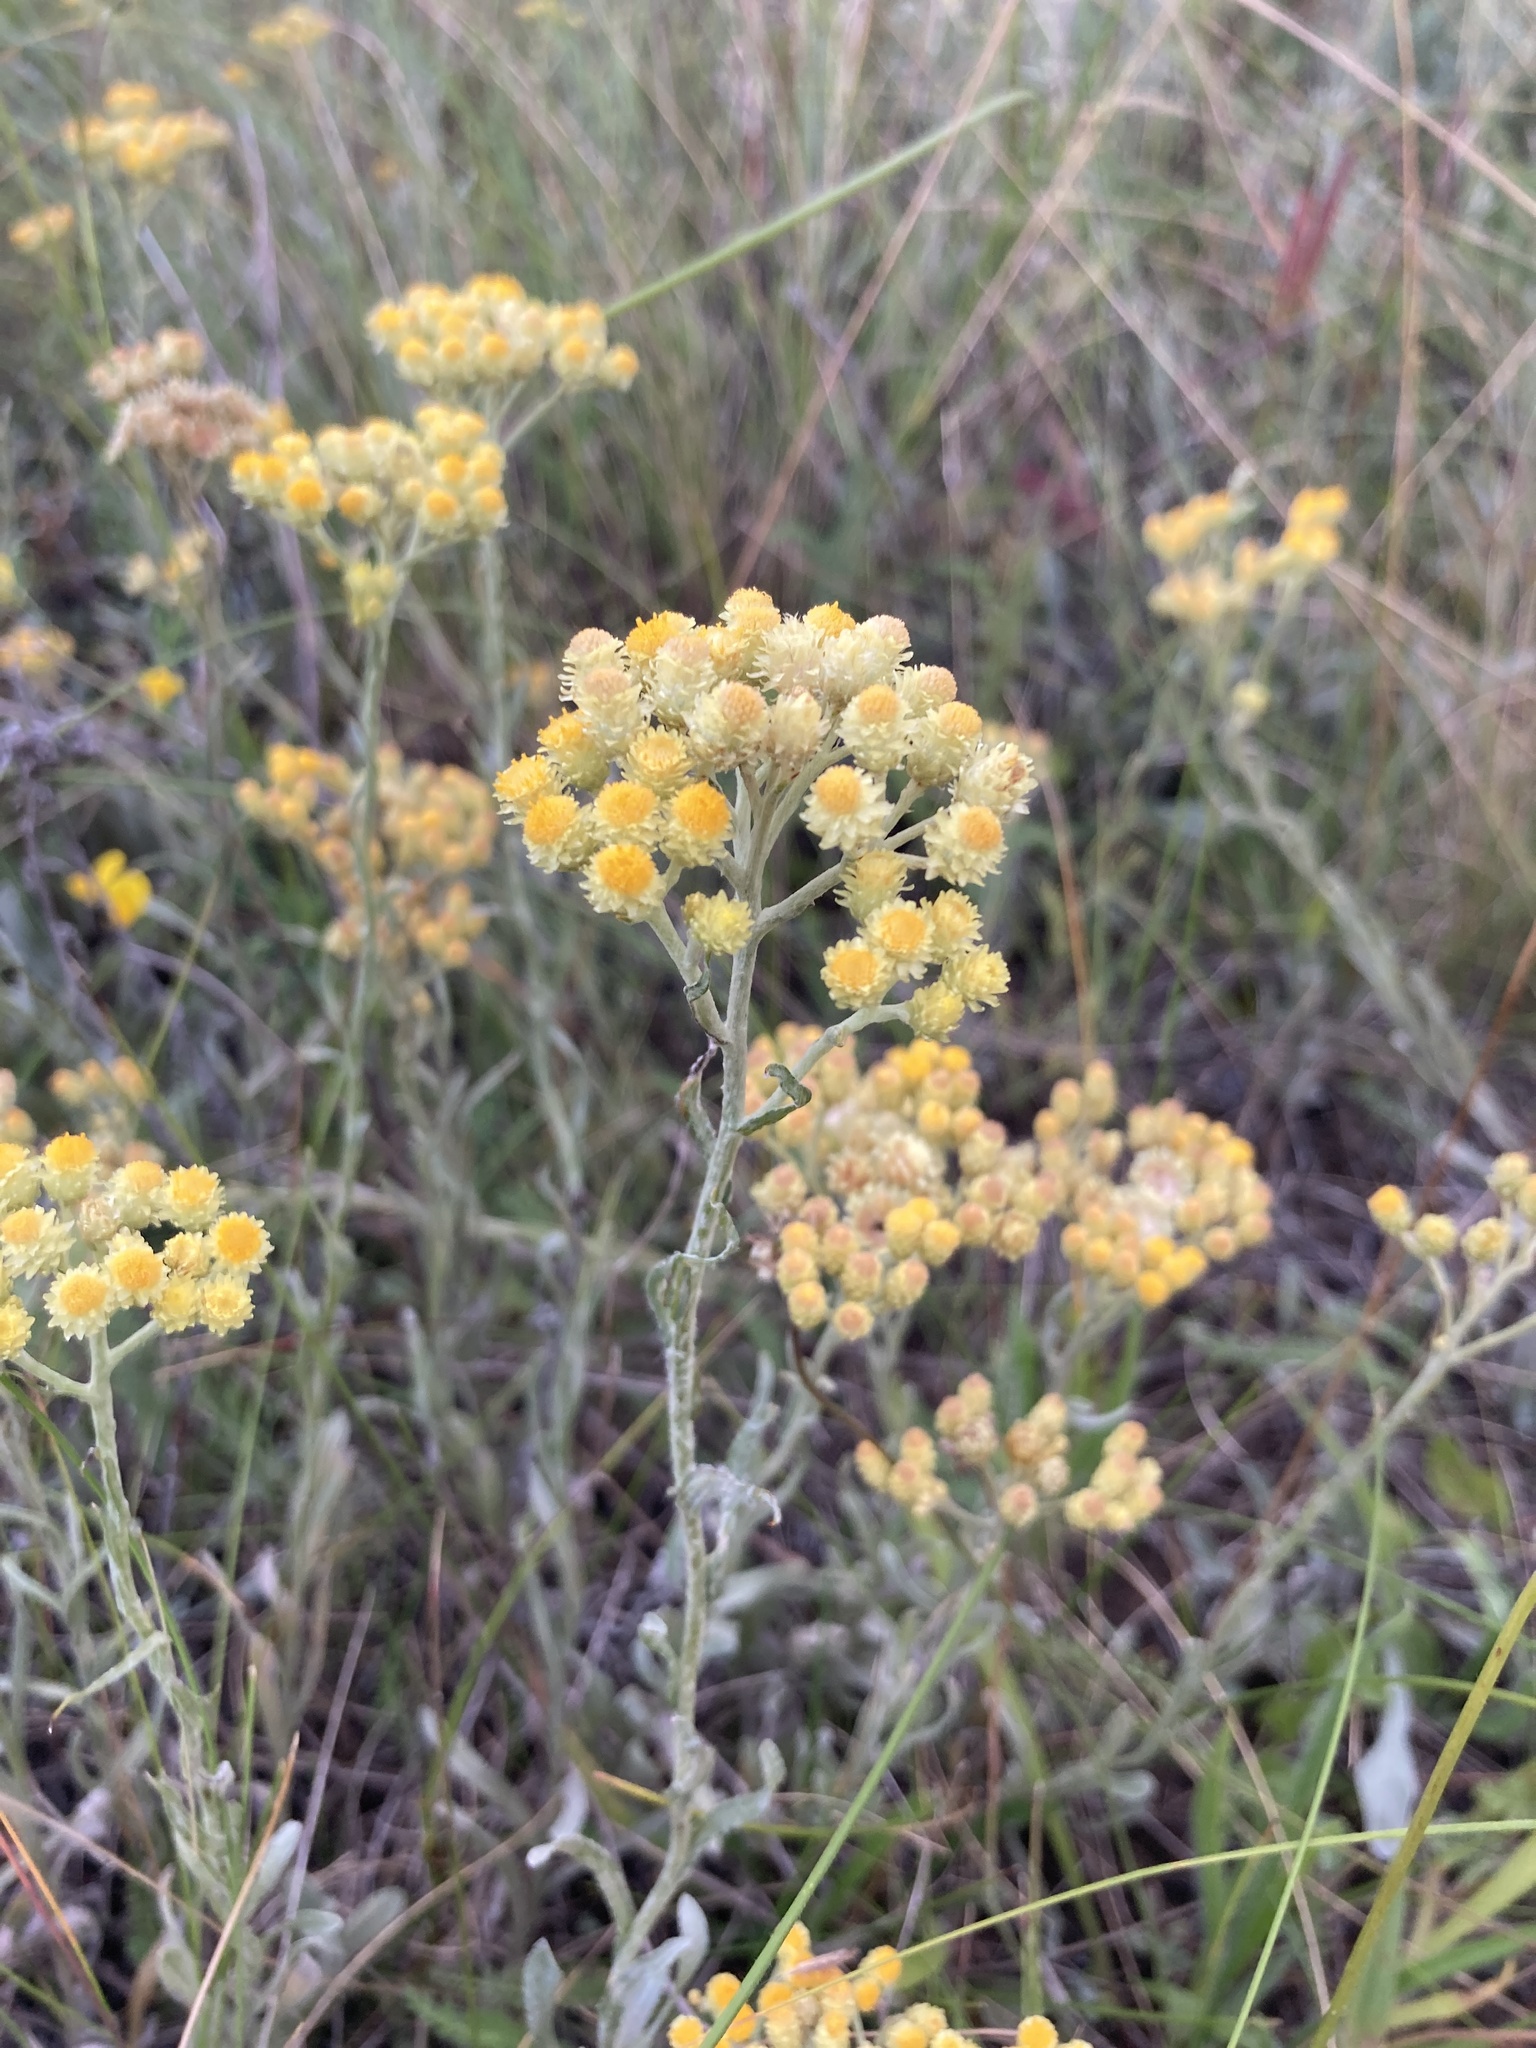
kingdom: Plantae
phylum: Tracheophyta
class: Magnoliopsida
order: Asterales
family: Asteraceae
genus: Helichrysum
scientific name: Helichrysum arenarium
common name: Strawflower
